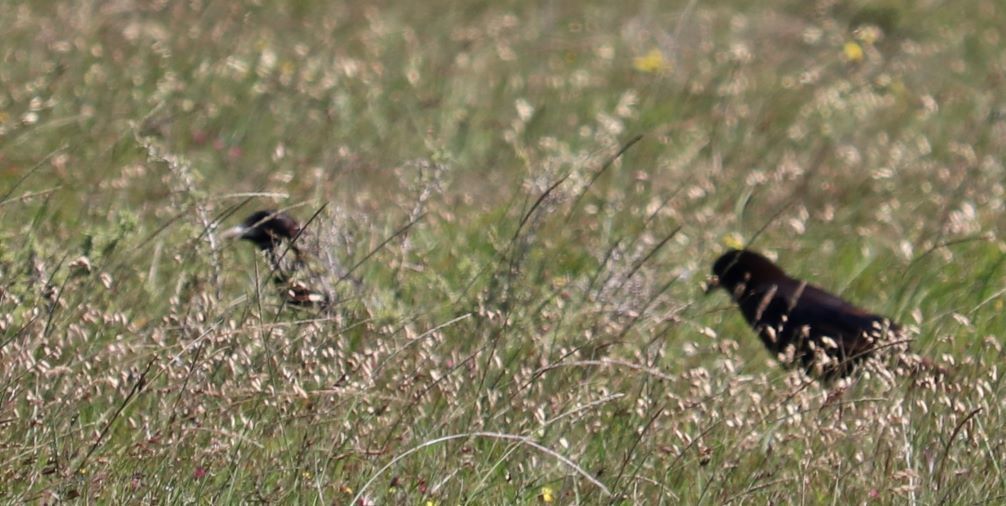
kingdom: Animalia
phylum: Chordata
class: Aves
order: Passeriformes
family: Corvidae
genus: Corvus
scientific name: Corvus capensis
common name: Cape crow
